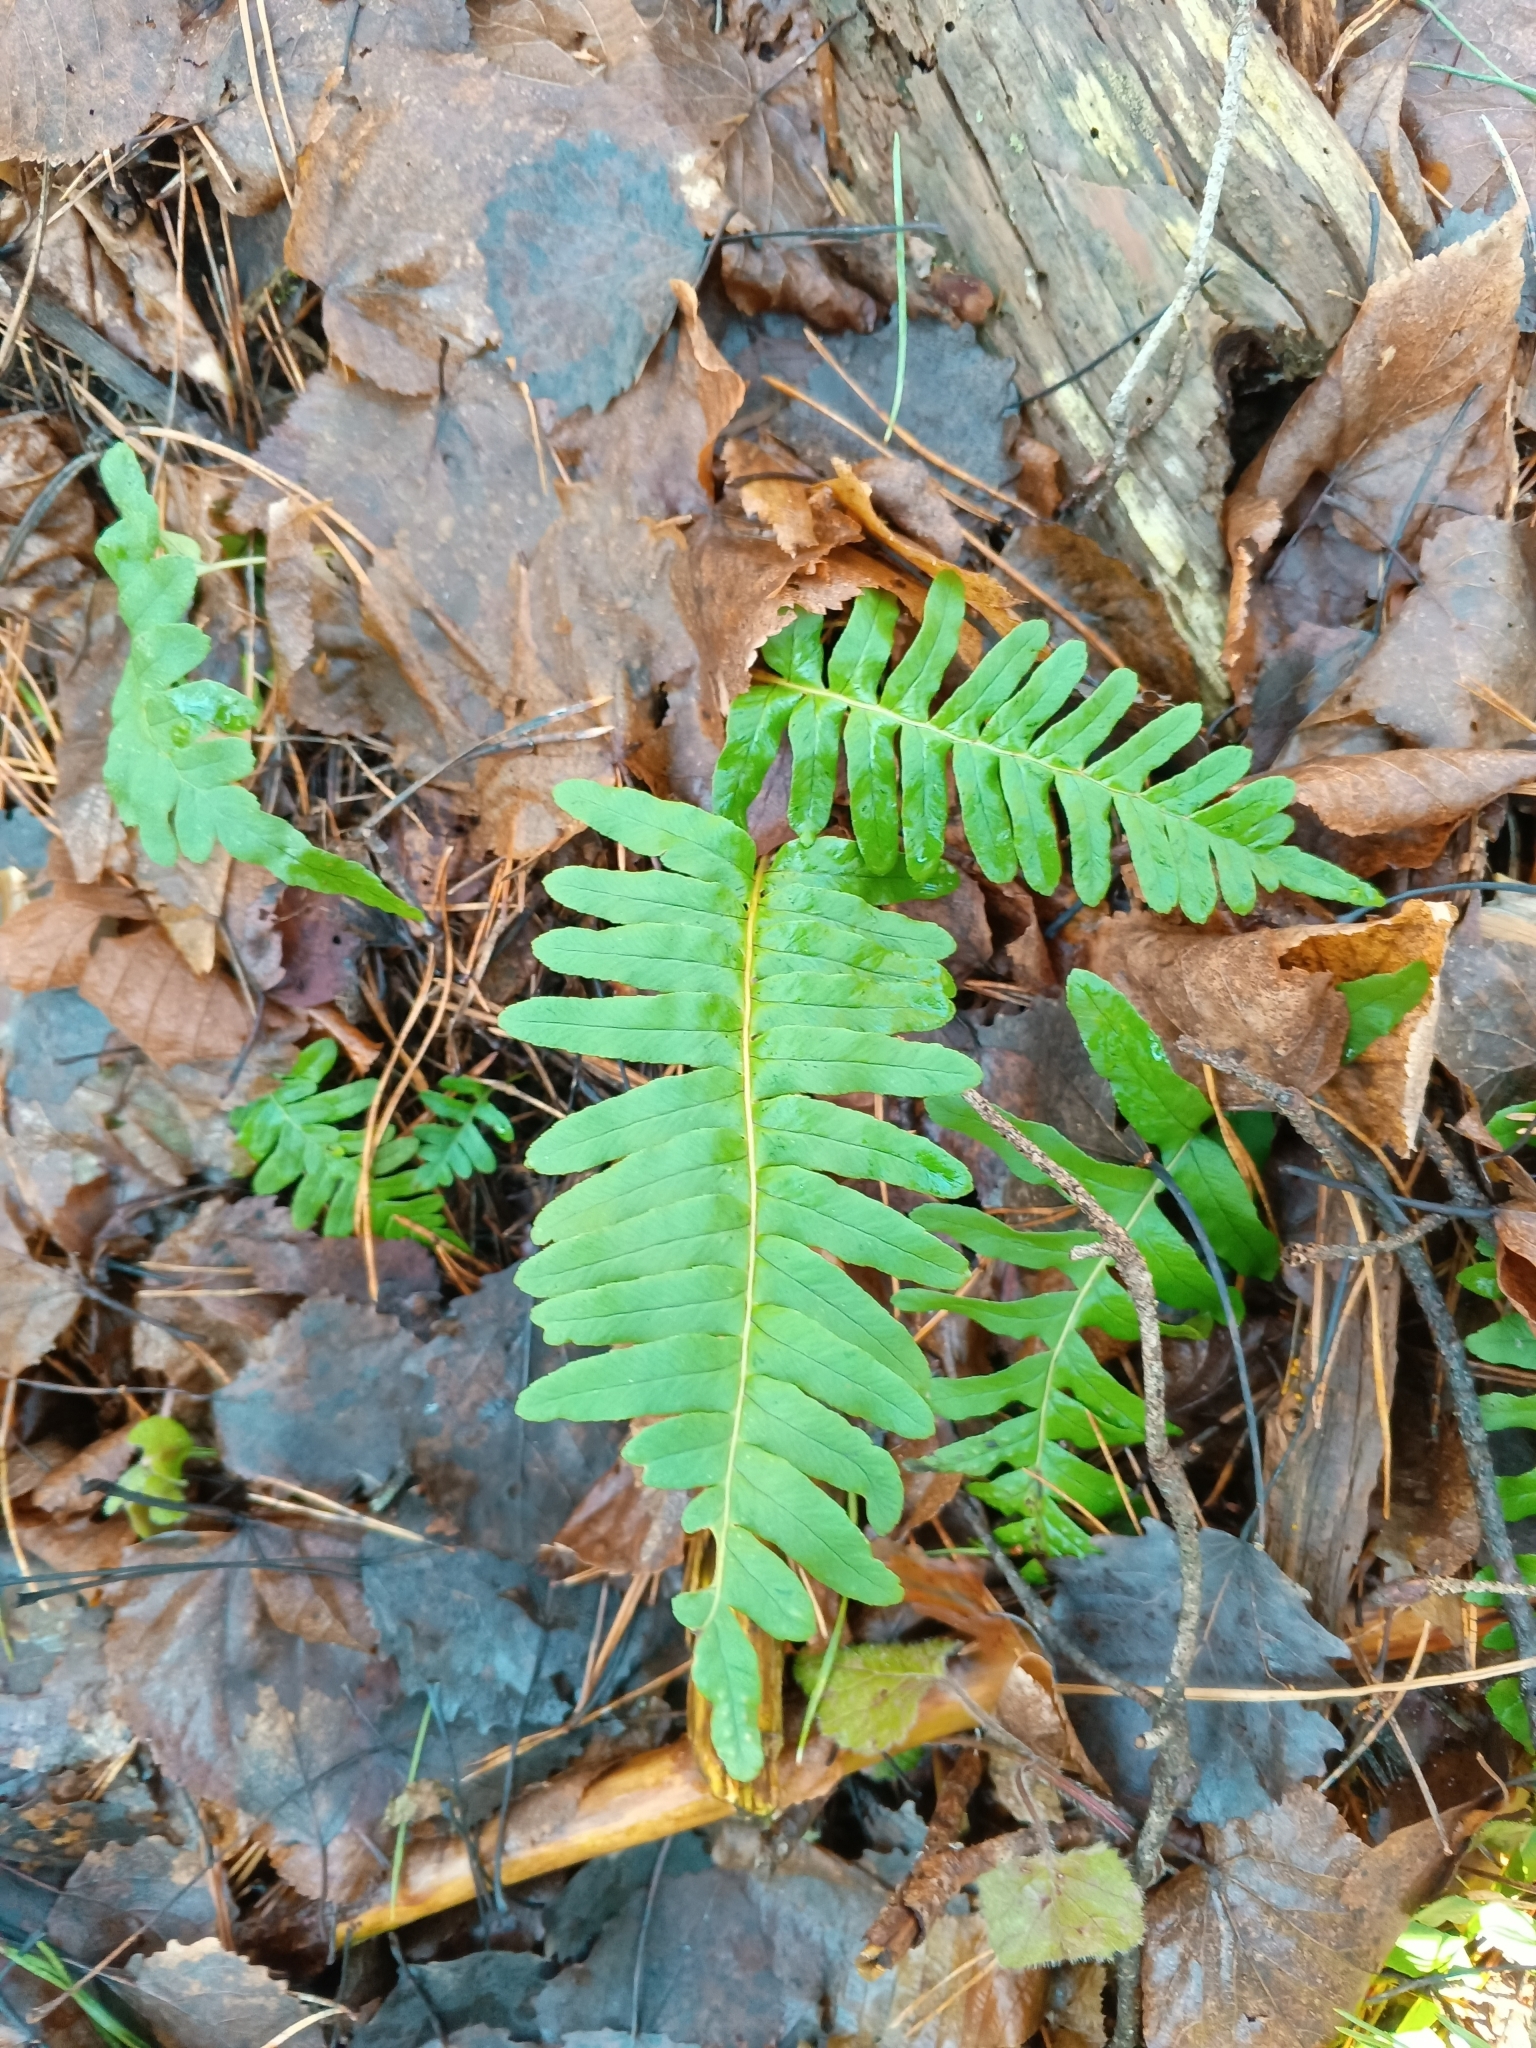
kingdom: Plantae
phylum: Tracheophyta
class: Polypodiopsida
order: Polypodiales
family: Polypodiaceae
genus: Polypodium
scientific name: Polypodium vulgare
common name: Common polypody
